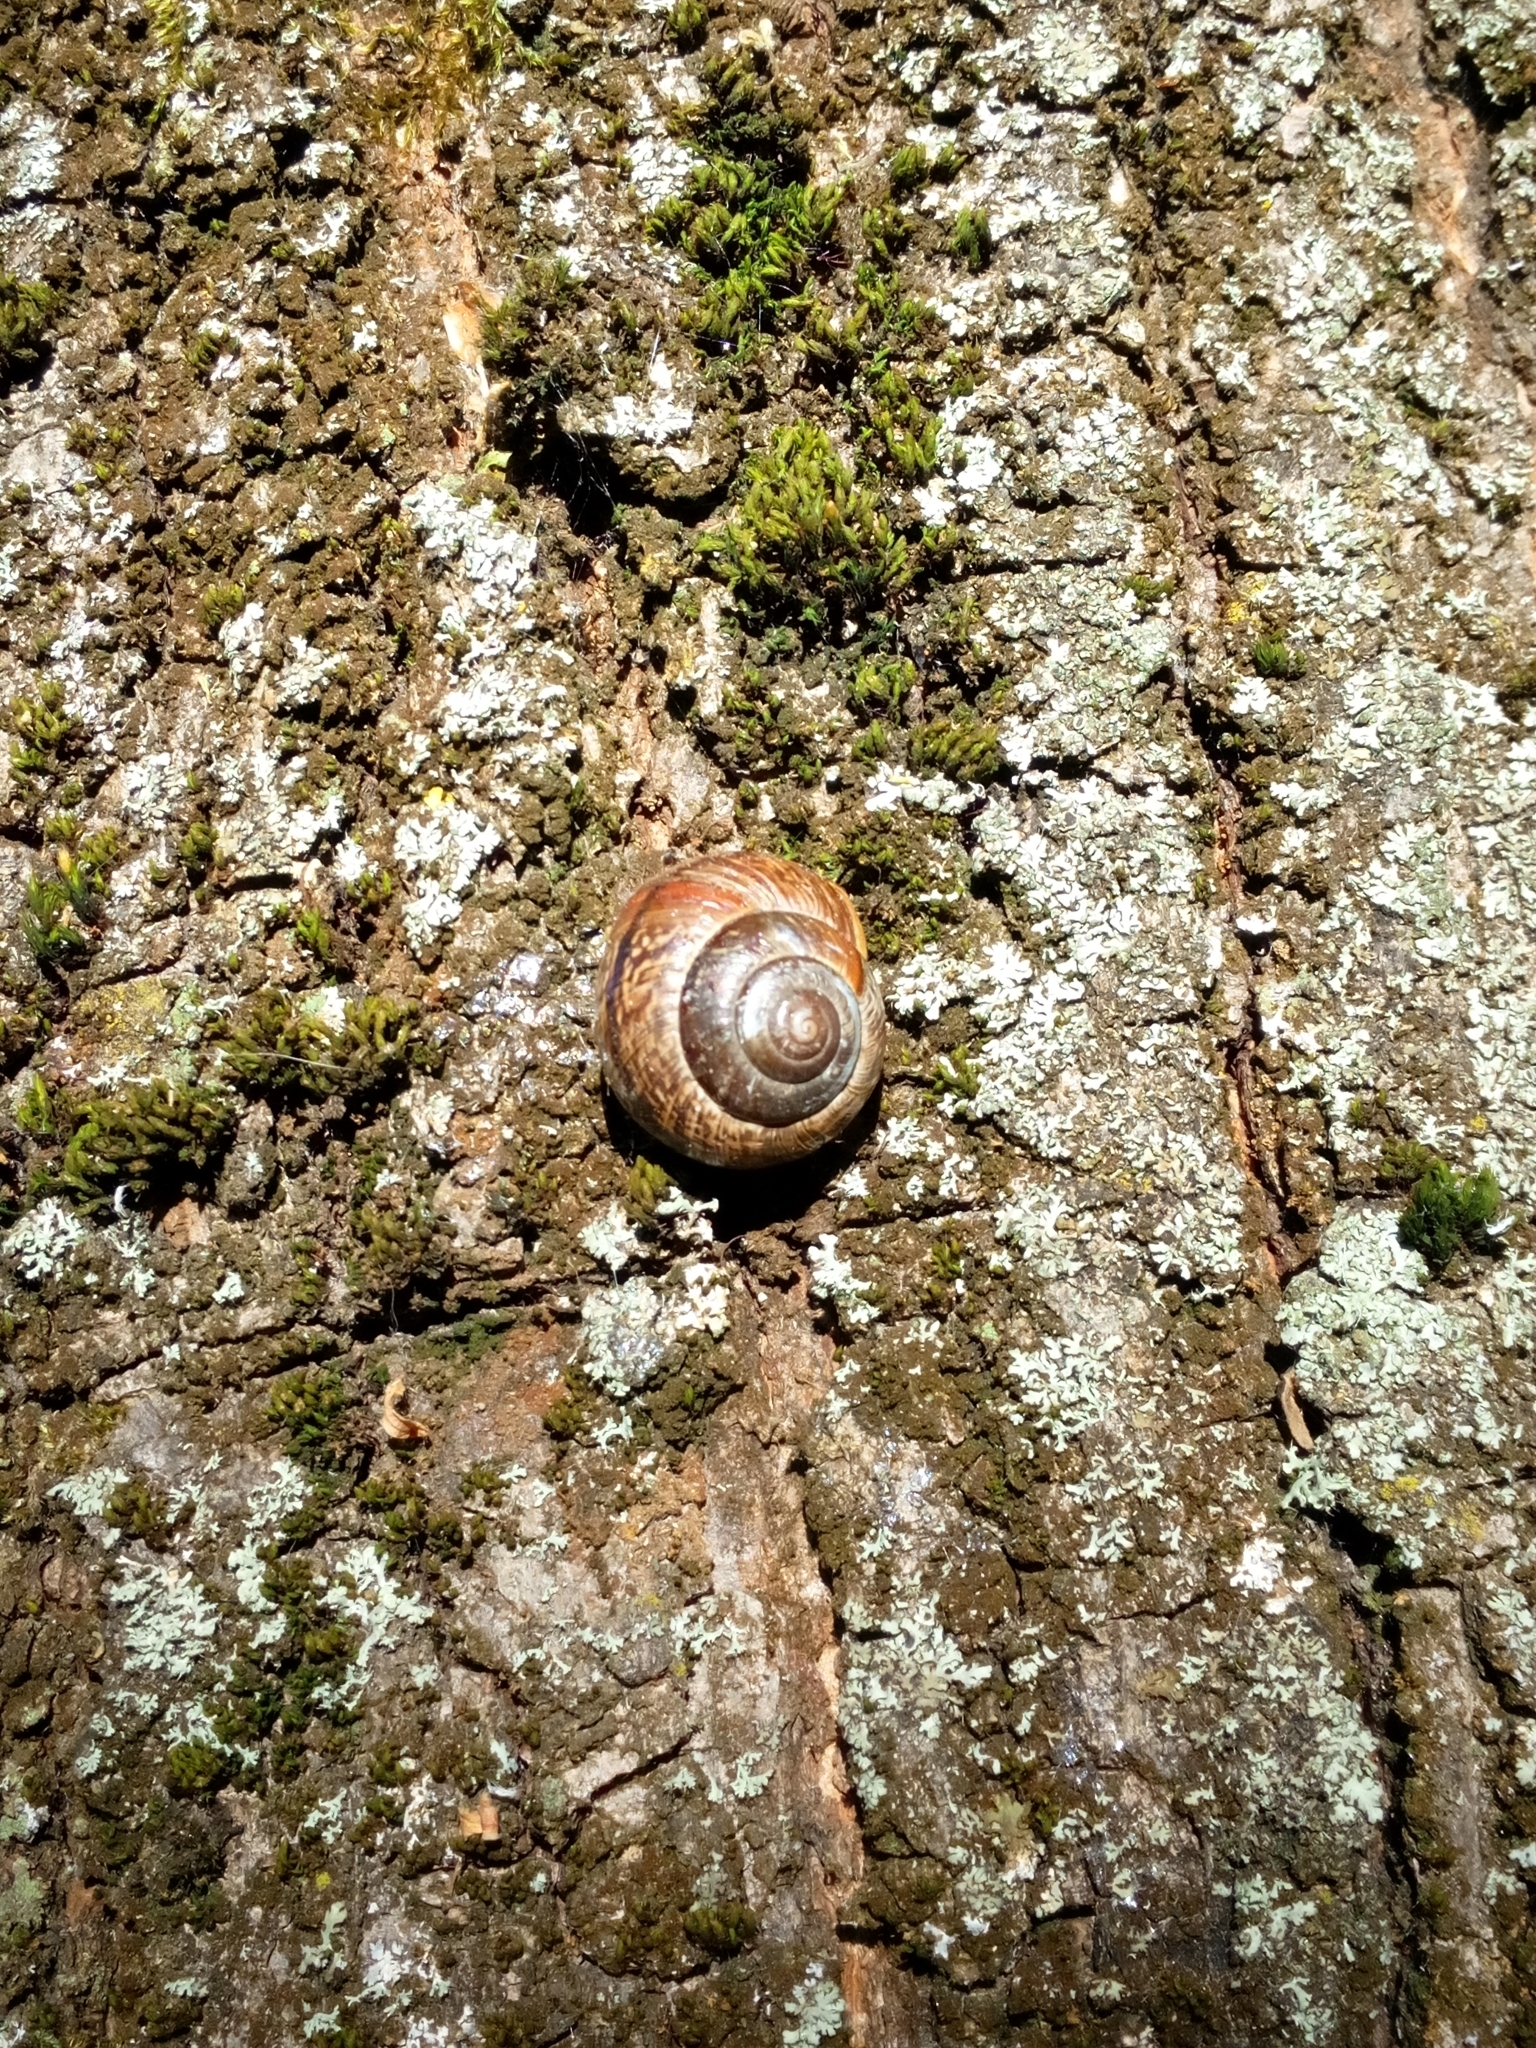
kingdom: Animalia
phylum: Mollusca
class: Gastropoda
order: Stylommatophora
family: Helicidae
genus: Arianta
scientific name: Arianta arbustorum
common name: Copse snail
